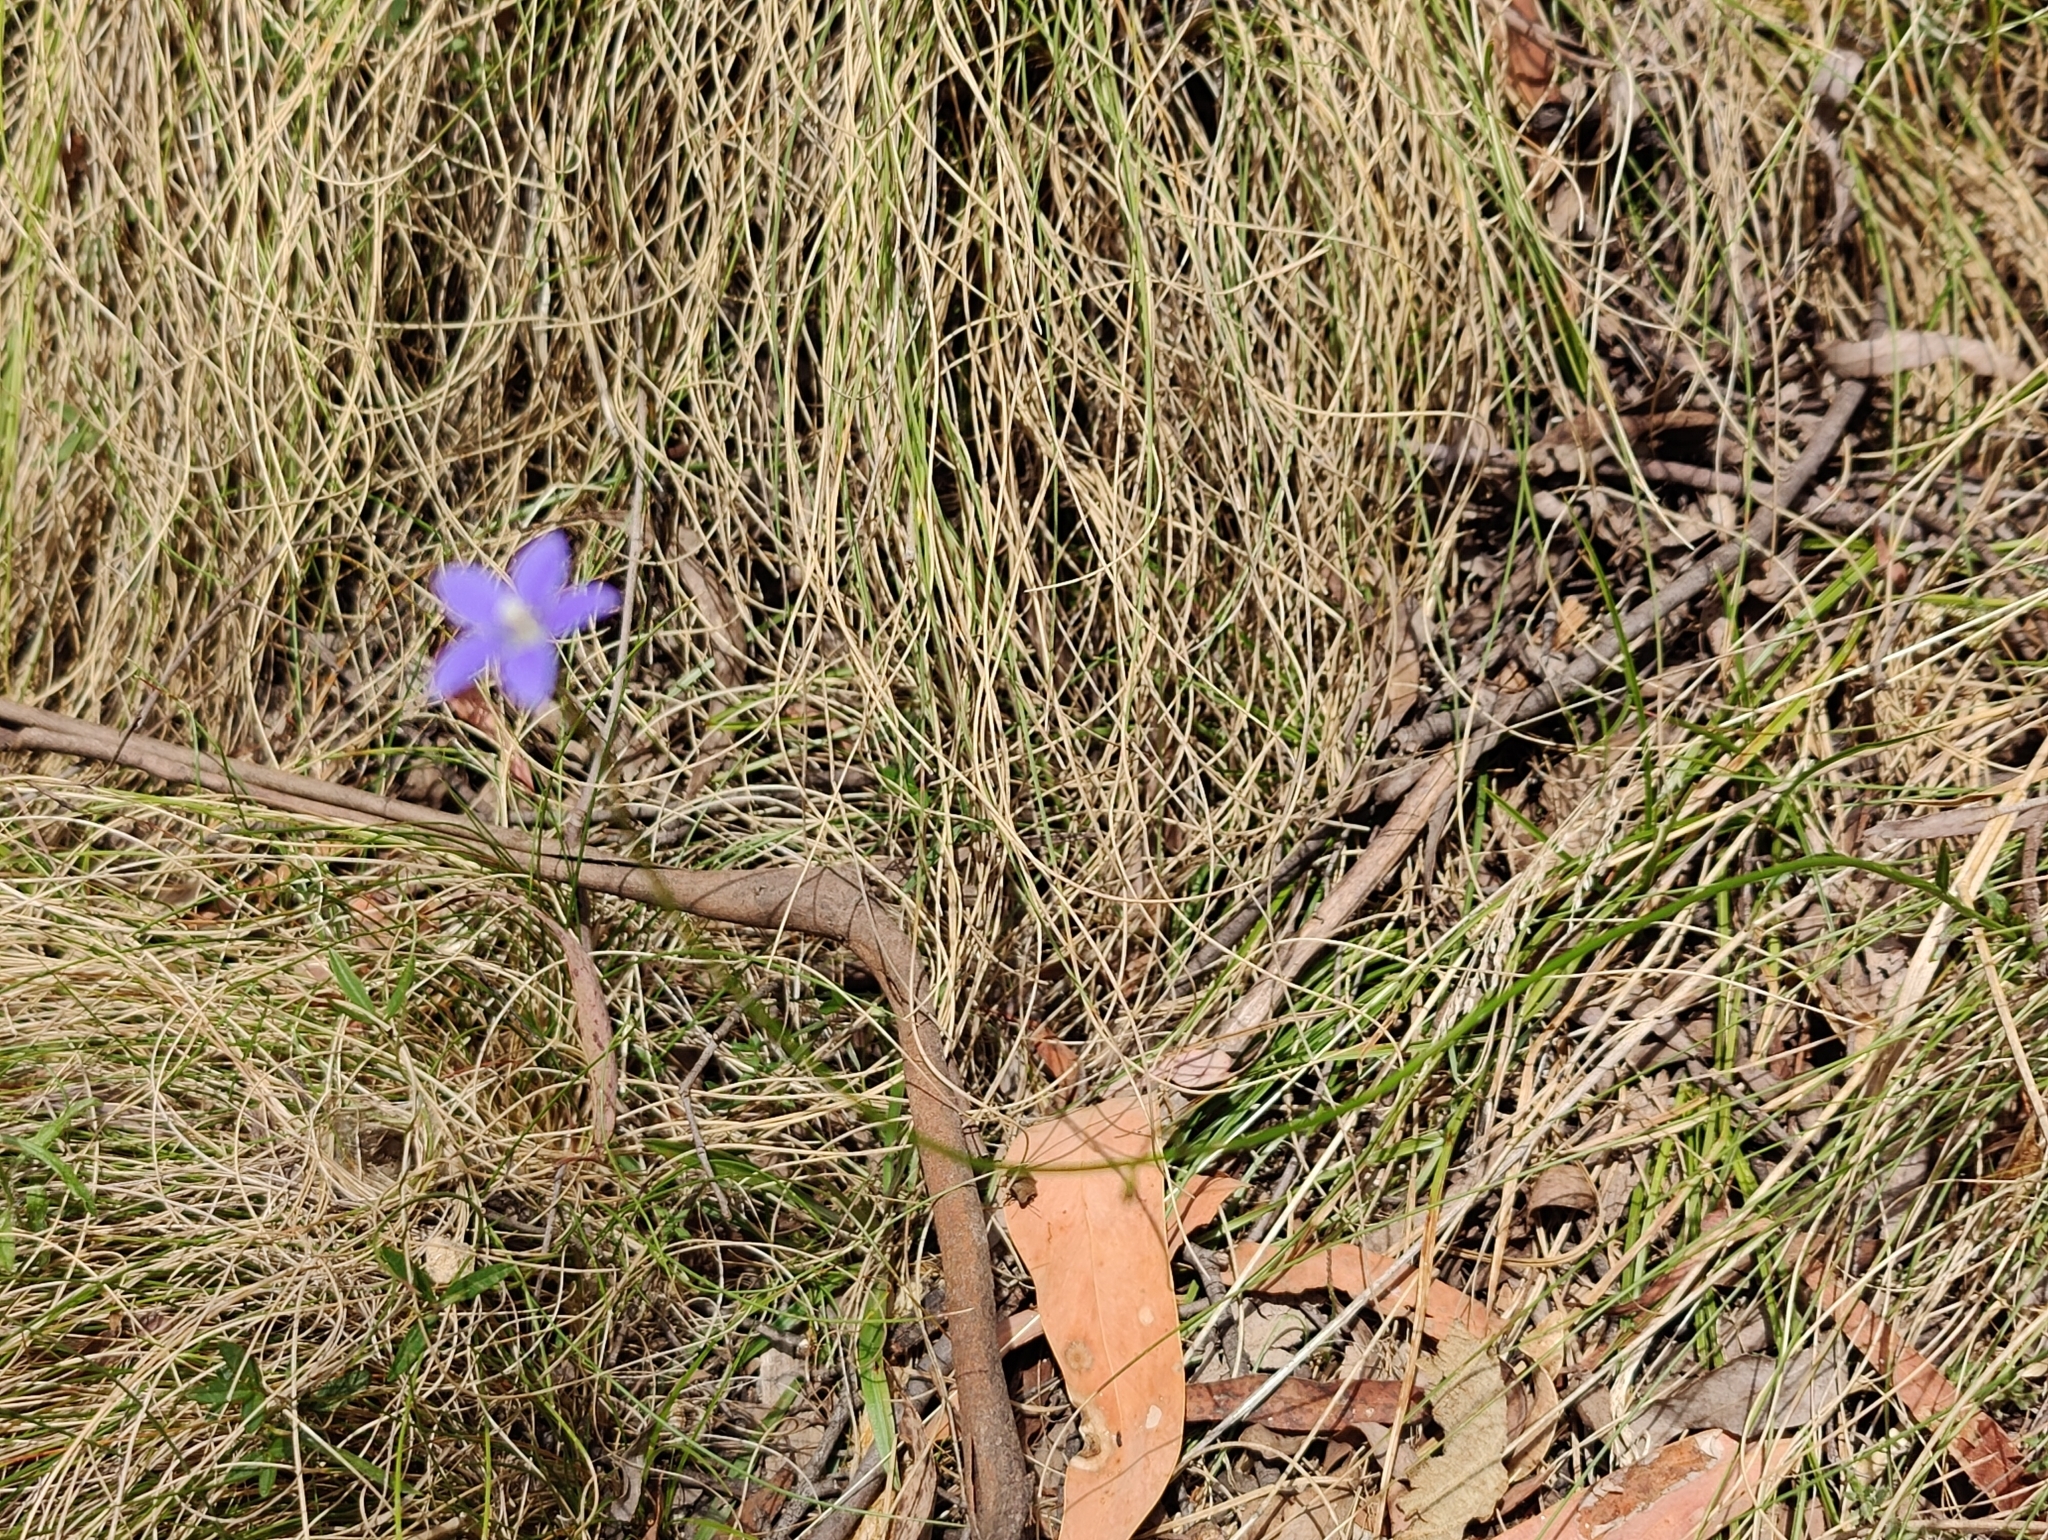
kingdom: Plantae
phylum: Tracheophyta
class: Magnoliopsida
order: Asterales
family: Campanulaceae
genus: Wahlenbergia
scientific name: Wahlenbergia stricta
